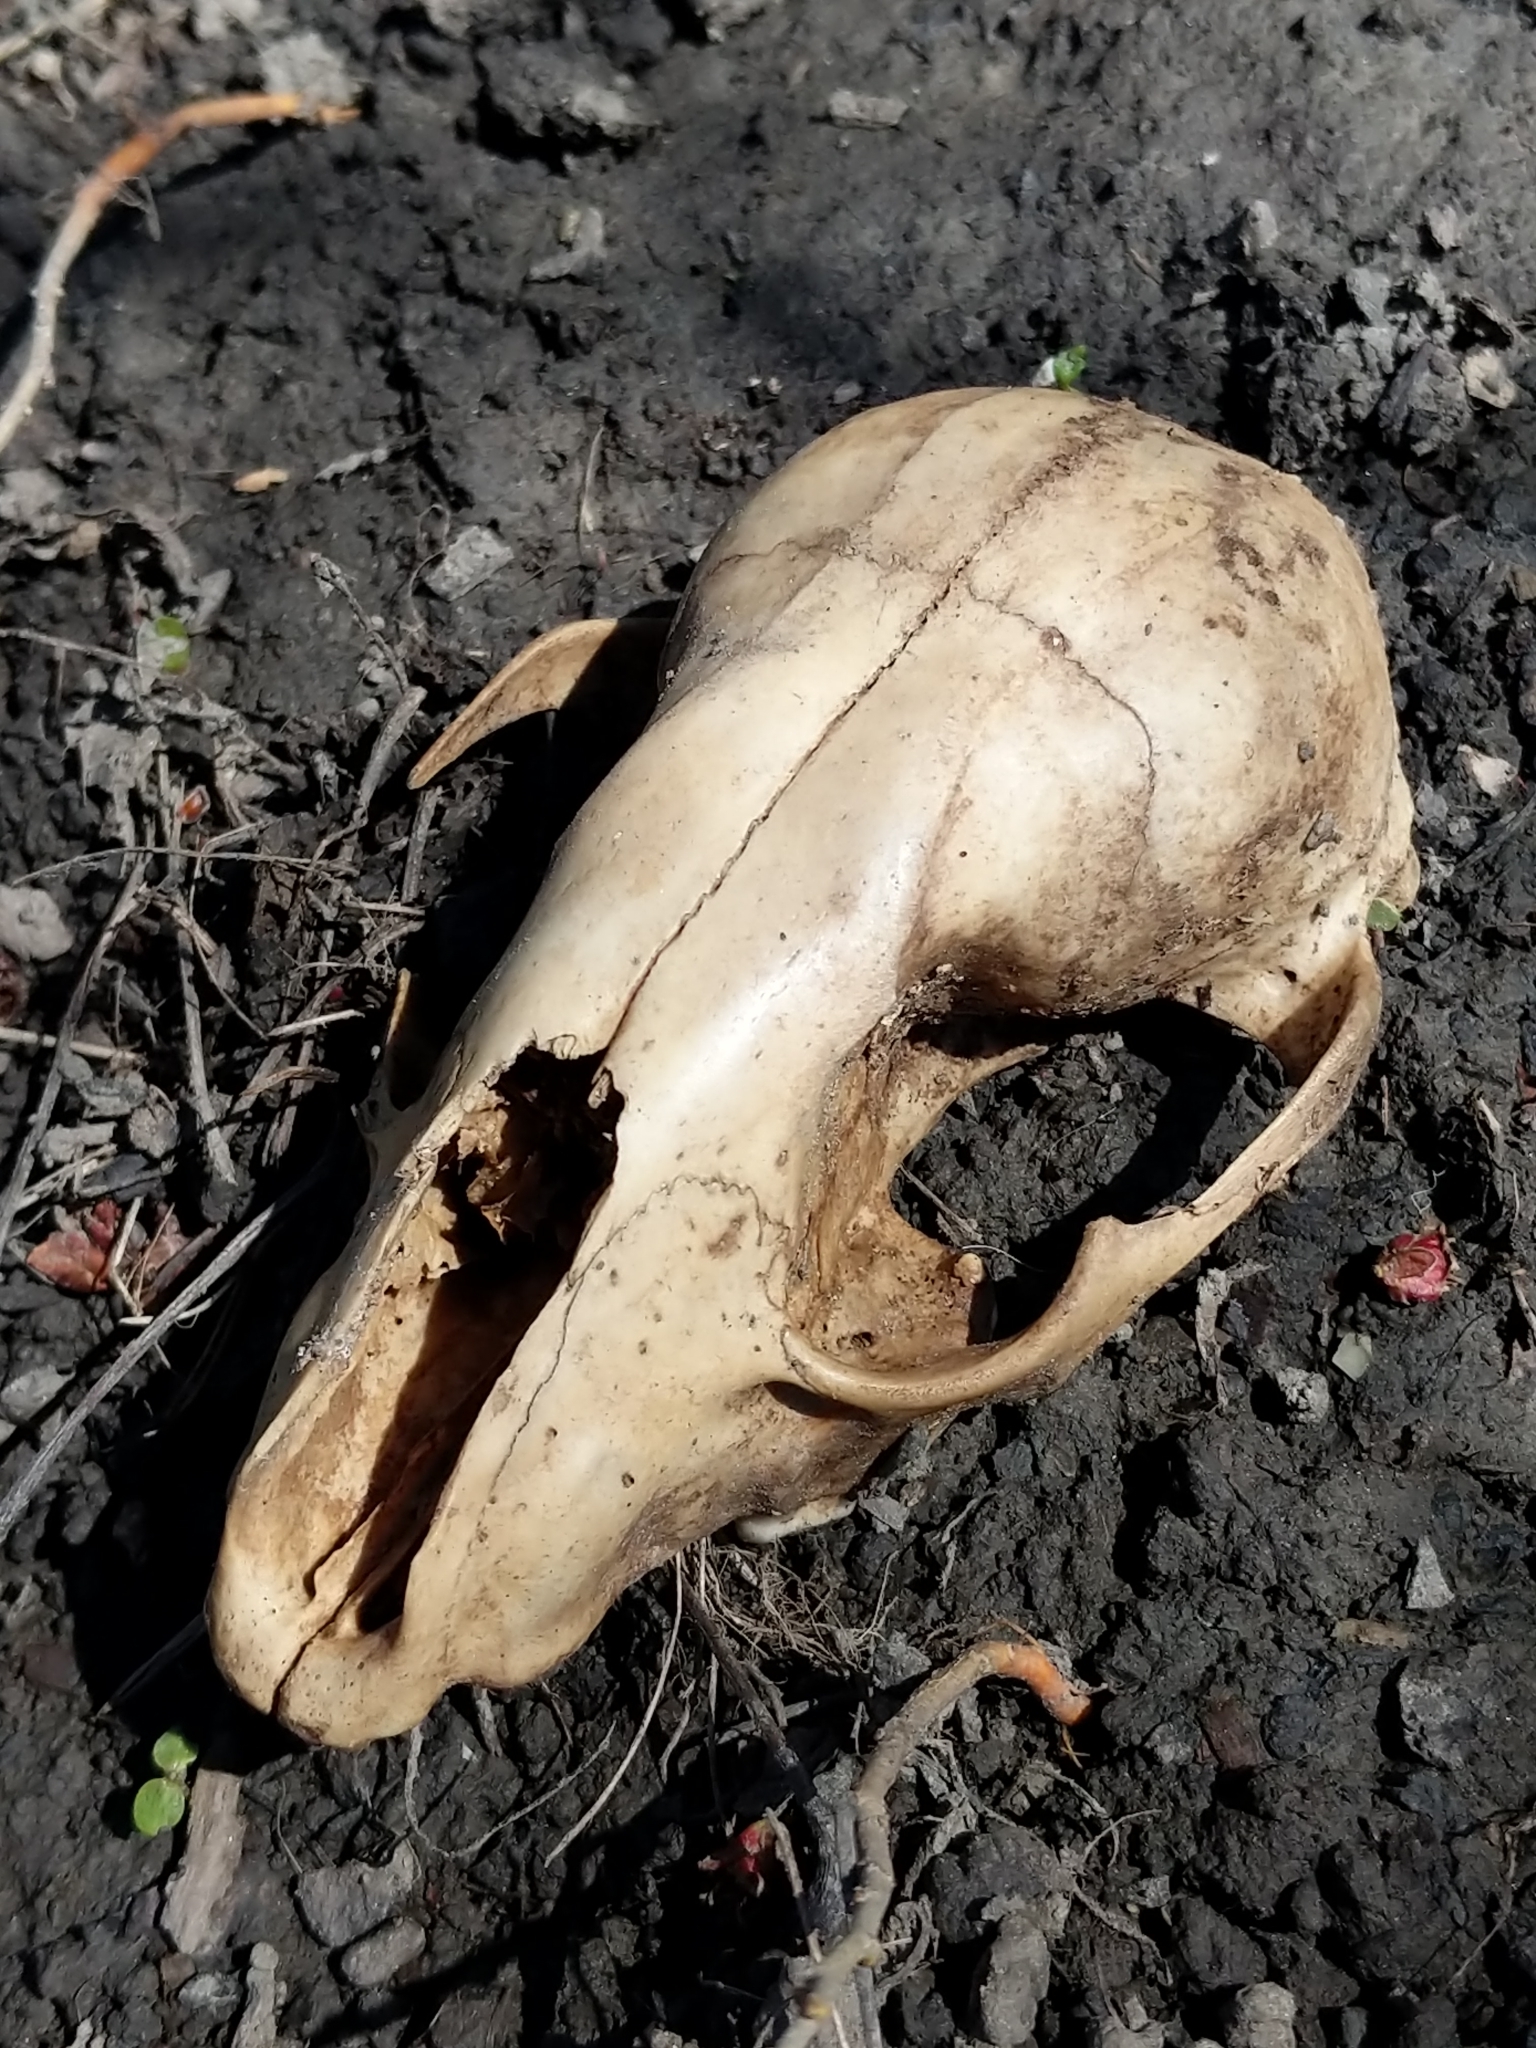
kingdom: Animalia
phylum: Chordata
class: Mammalia
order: Carnivora
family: Procyonidae
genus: Procyon
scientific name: Procyon lotor
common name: Raccoon
